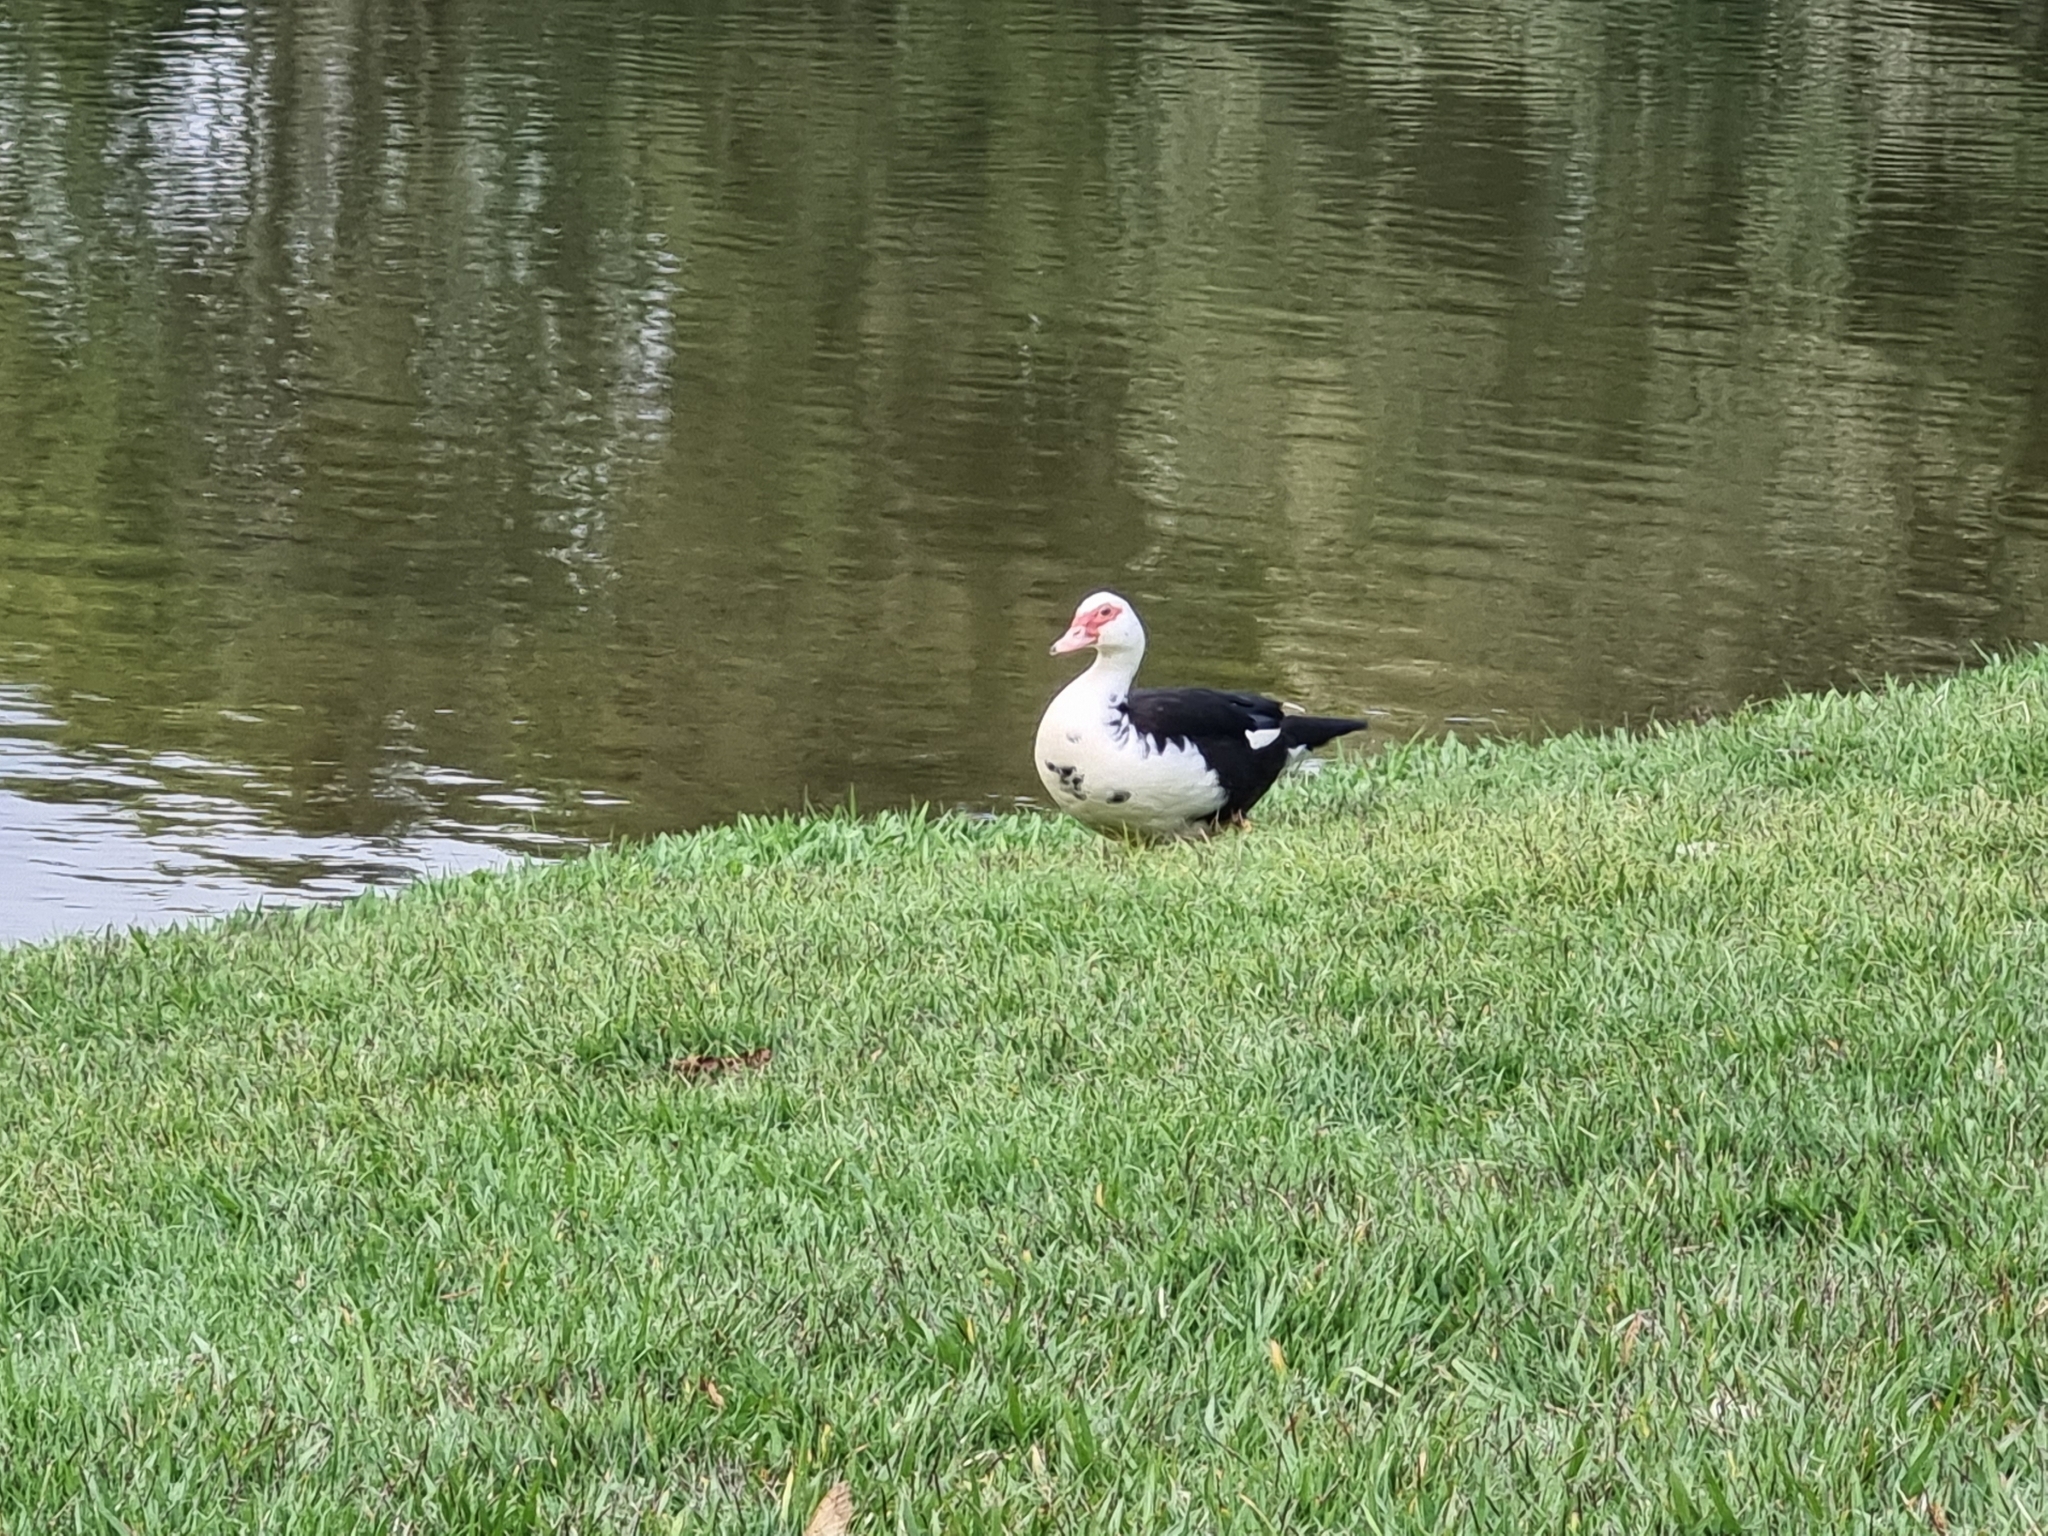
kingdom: Animalia
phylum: Chordata
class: Aves
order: Anseriformes
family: Anatidae
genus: Cairina
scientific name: Cairina moschata
